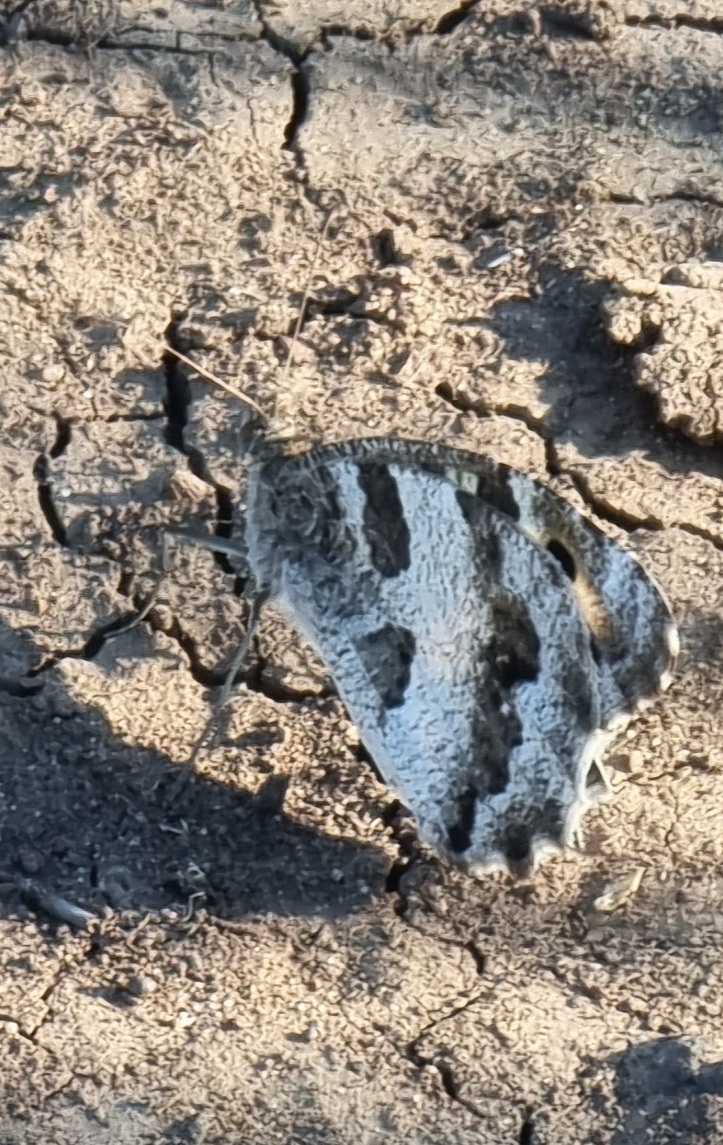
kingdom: Animalia
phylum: Arthropoda
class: Insecta
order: Lepidoptera
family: Nymphalidae
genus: Satyrus
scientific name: Satyrus briseis
